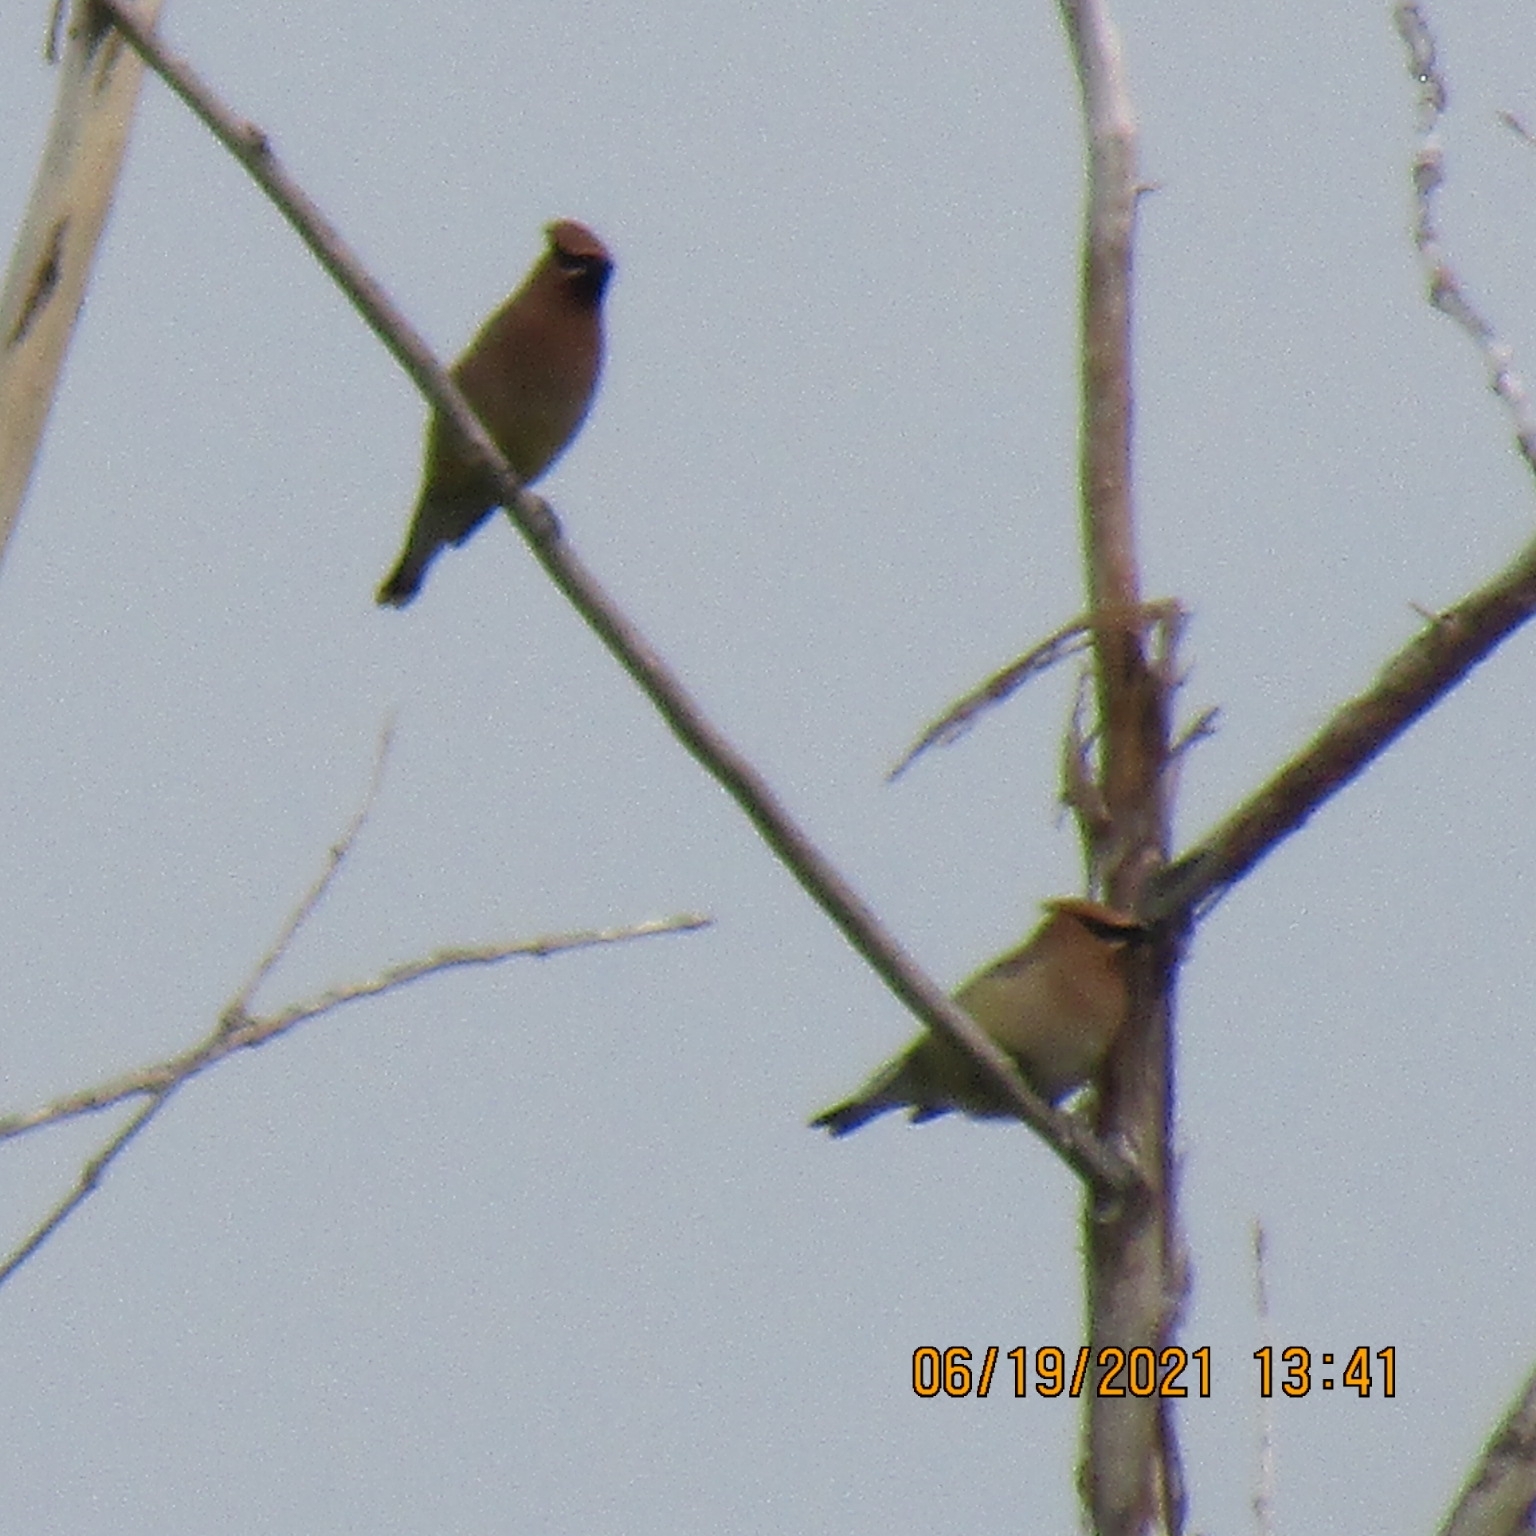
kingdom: Animalia
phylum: Chordata
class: Aves
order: Passeriformes
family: Bombycillidae
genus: Bombycilla
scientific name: Bombycilla cedrorum
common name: Cedar waxwing
